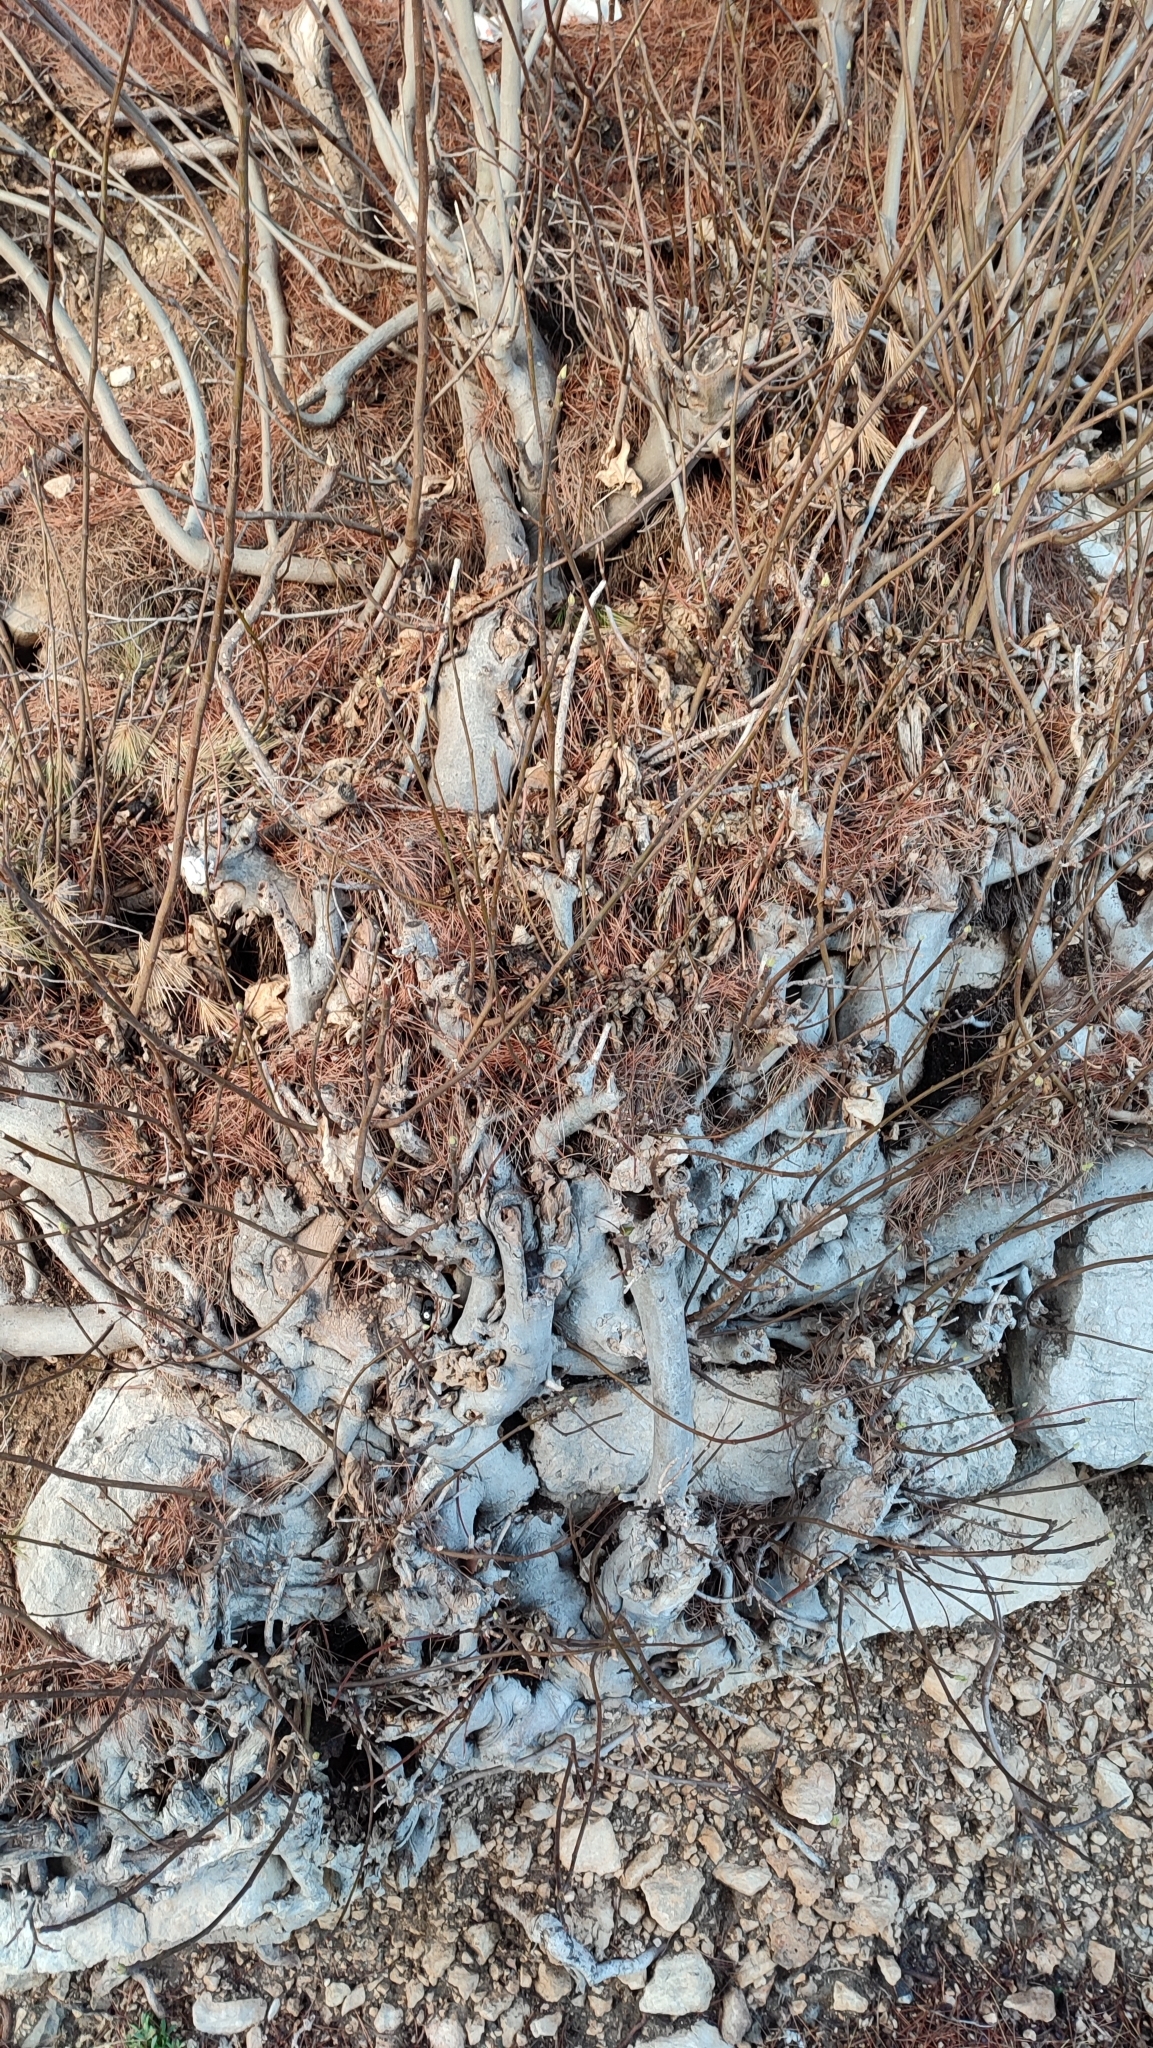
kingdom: Plantae
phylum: Tracheophyta
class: Magnoliopsida
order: Rosales
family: Moraceae
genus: Ficus
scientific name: Ficus carica
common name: Fig
